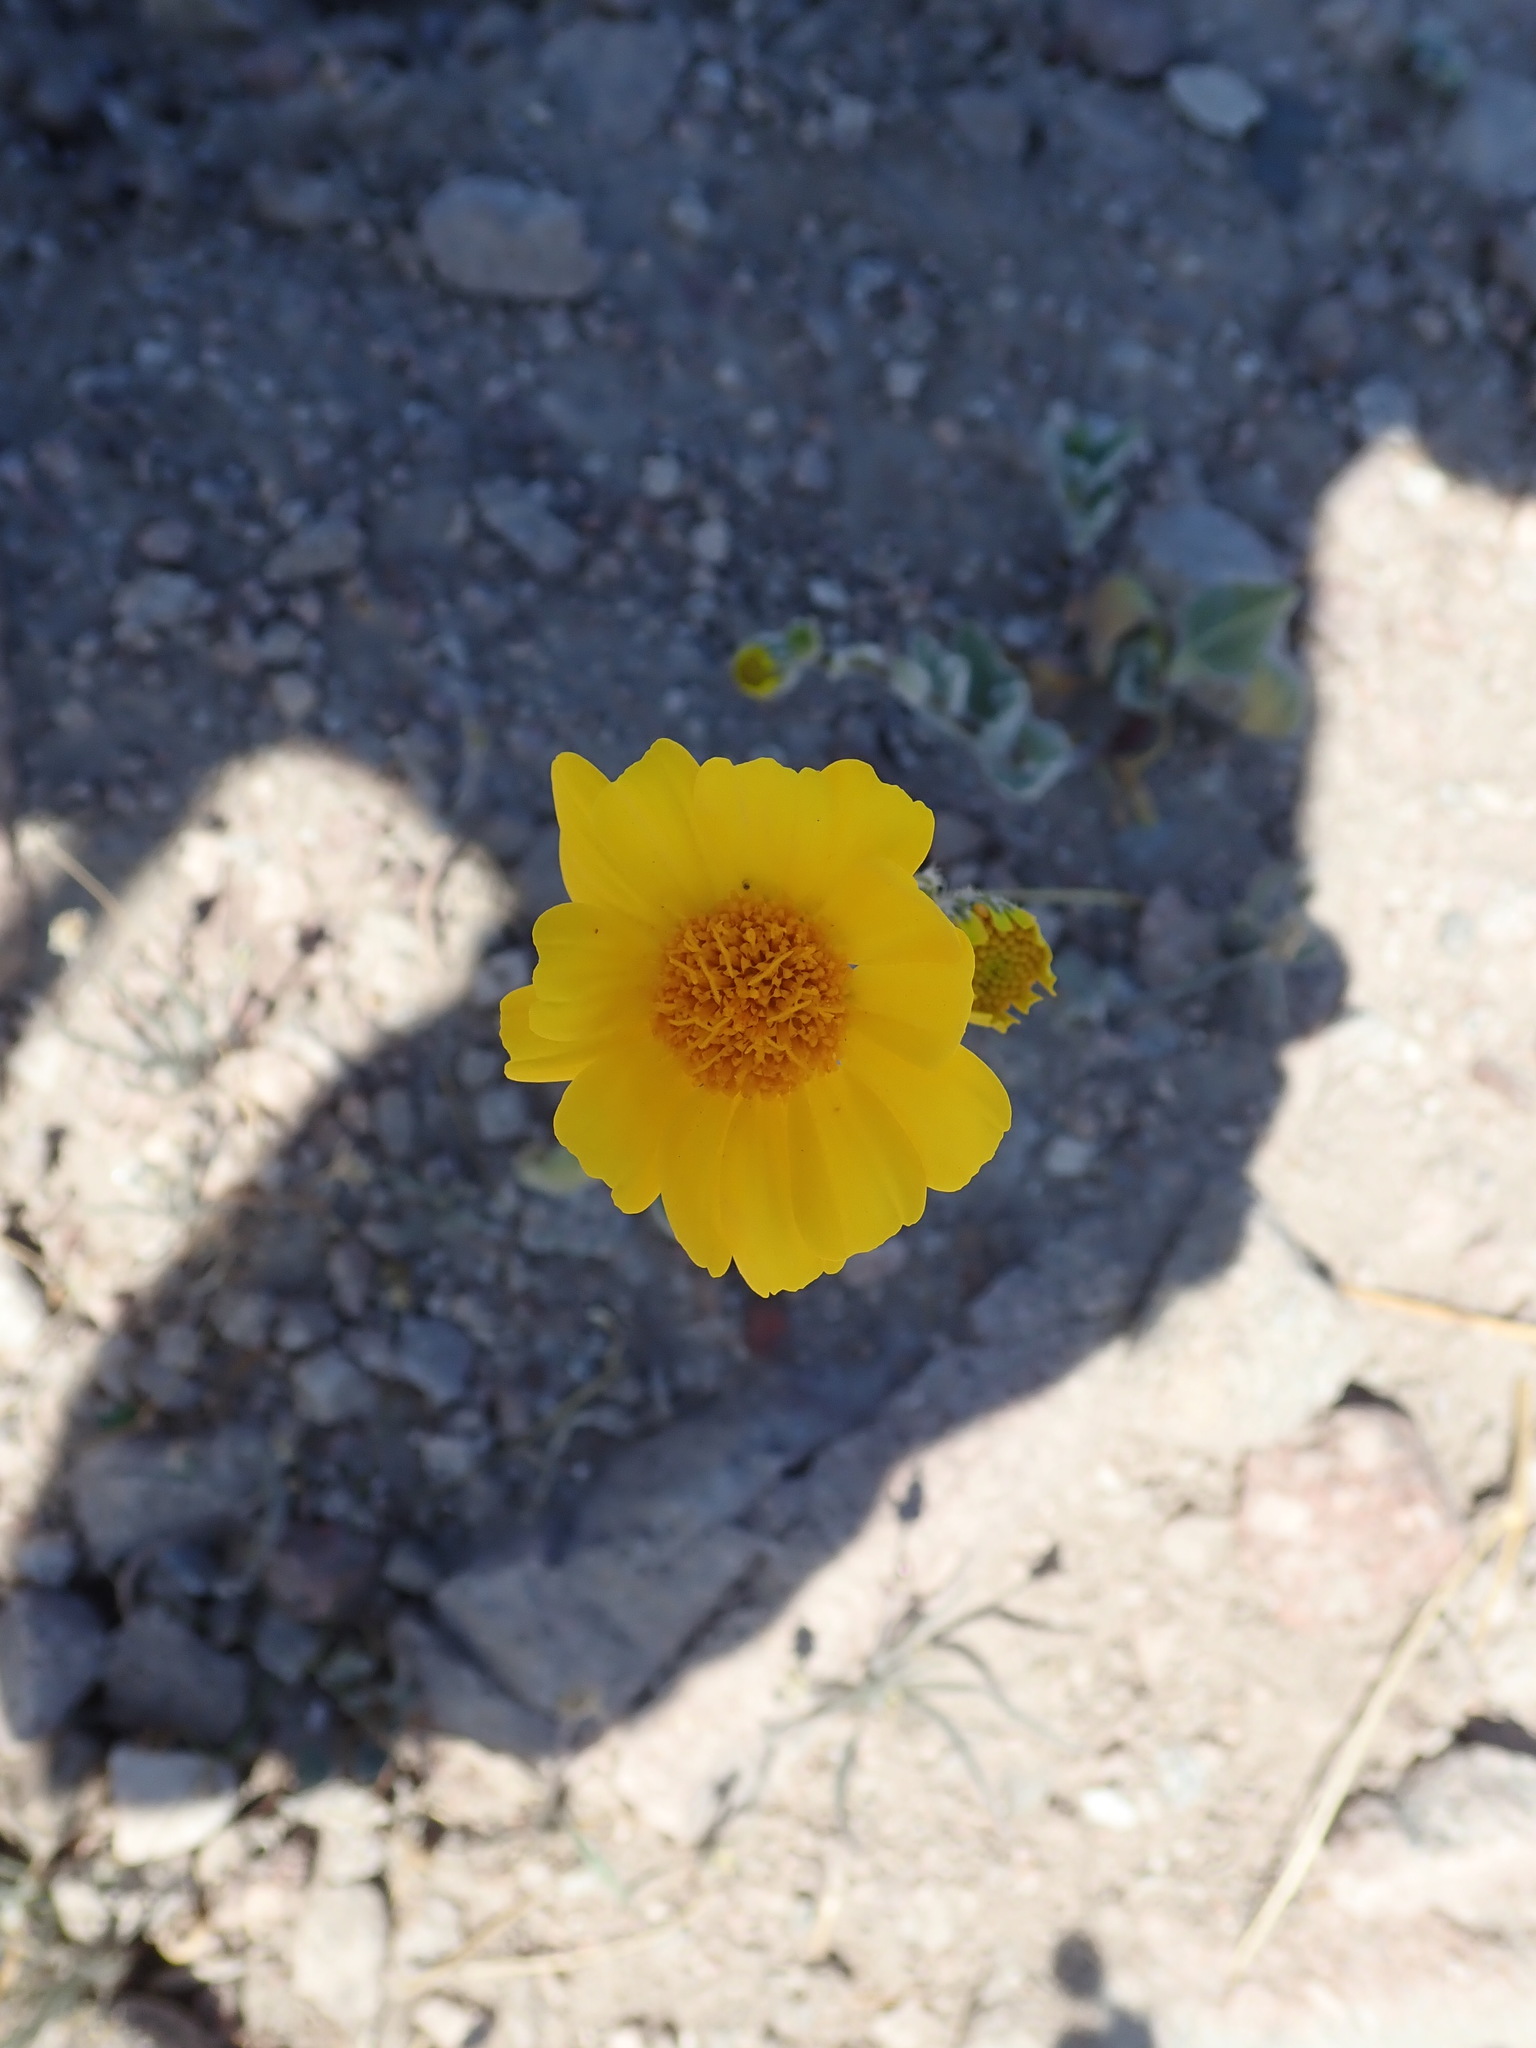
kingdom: Plantae
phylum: Tracheophyta
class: Magnoliopsida
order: Asterales
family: Asteraceae
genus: Geraea
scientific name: Geraea canescens
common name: Desert-gold
